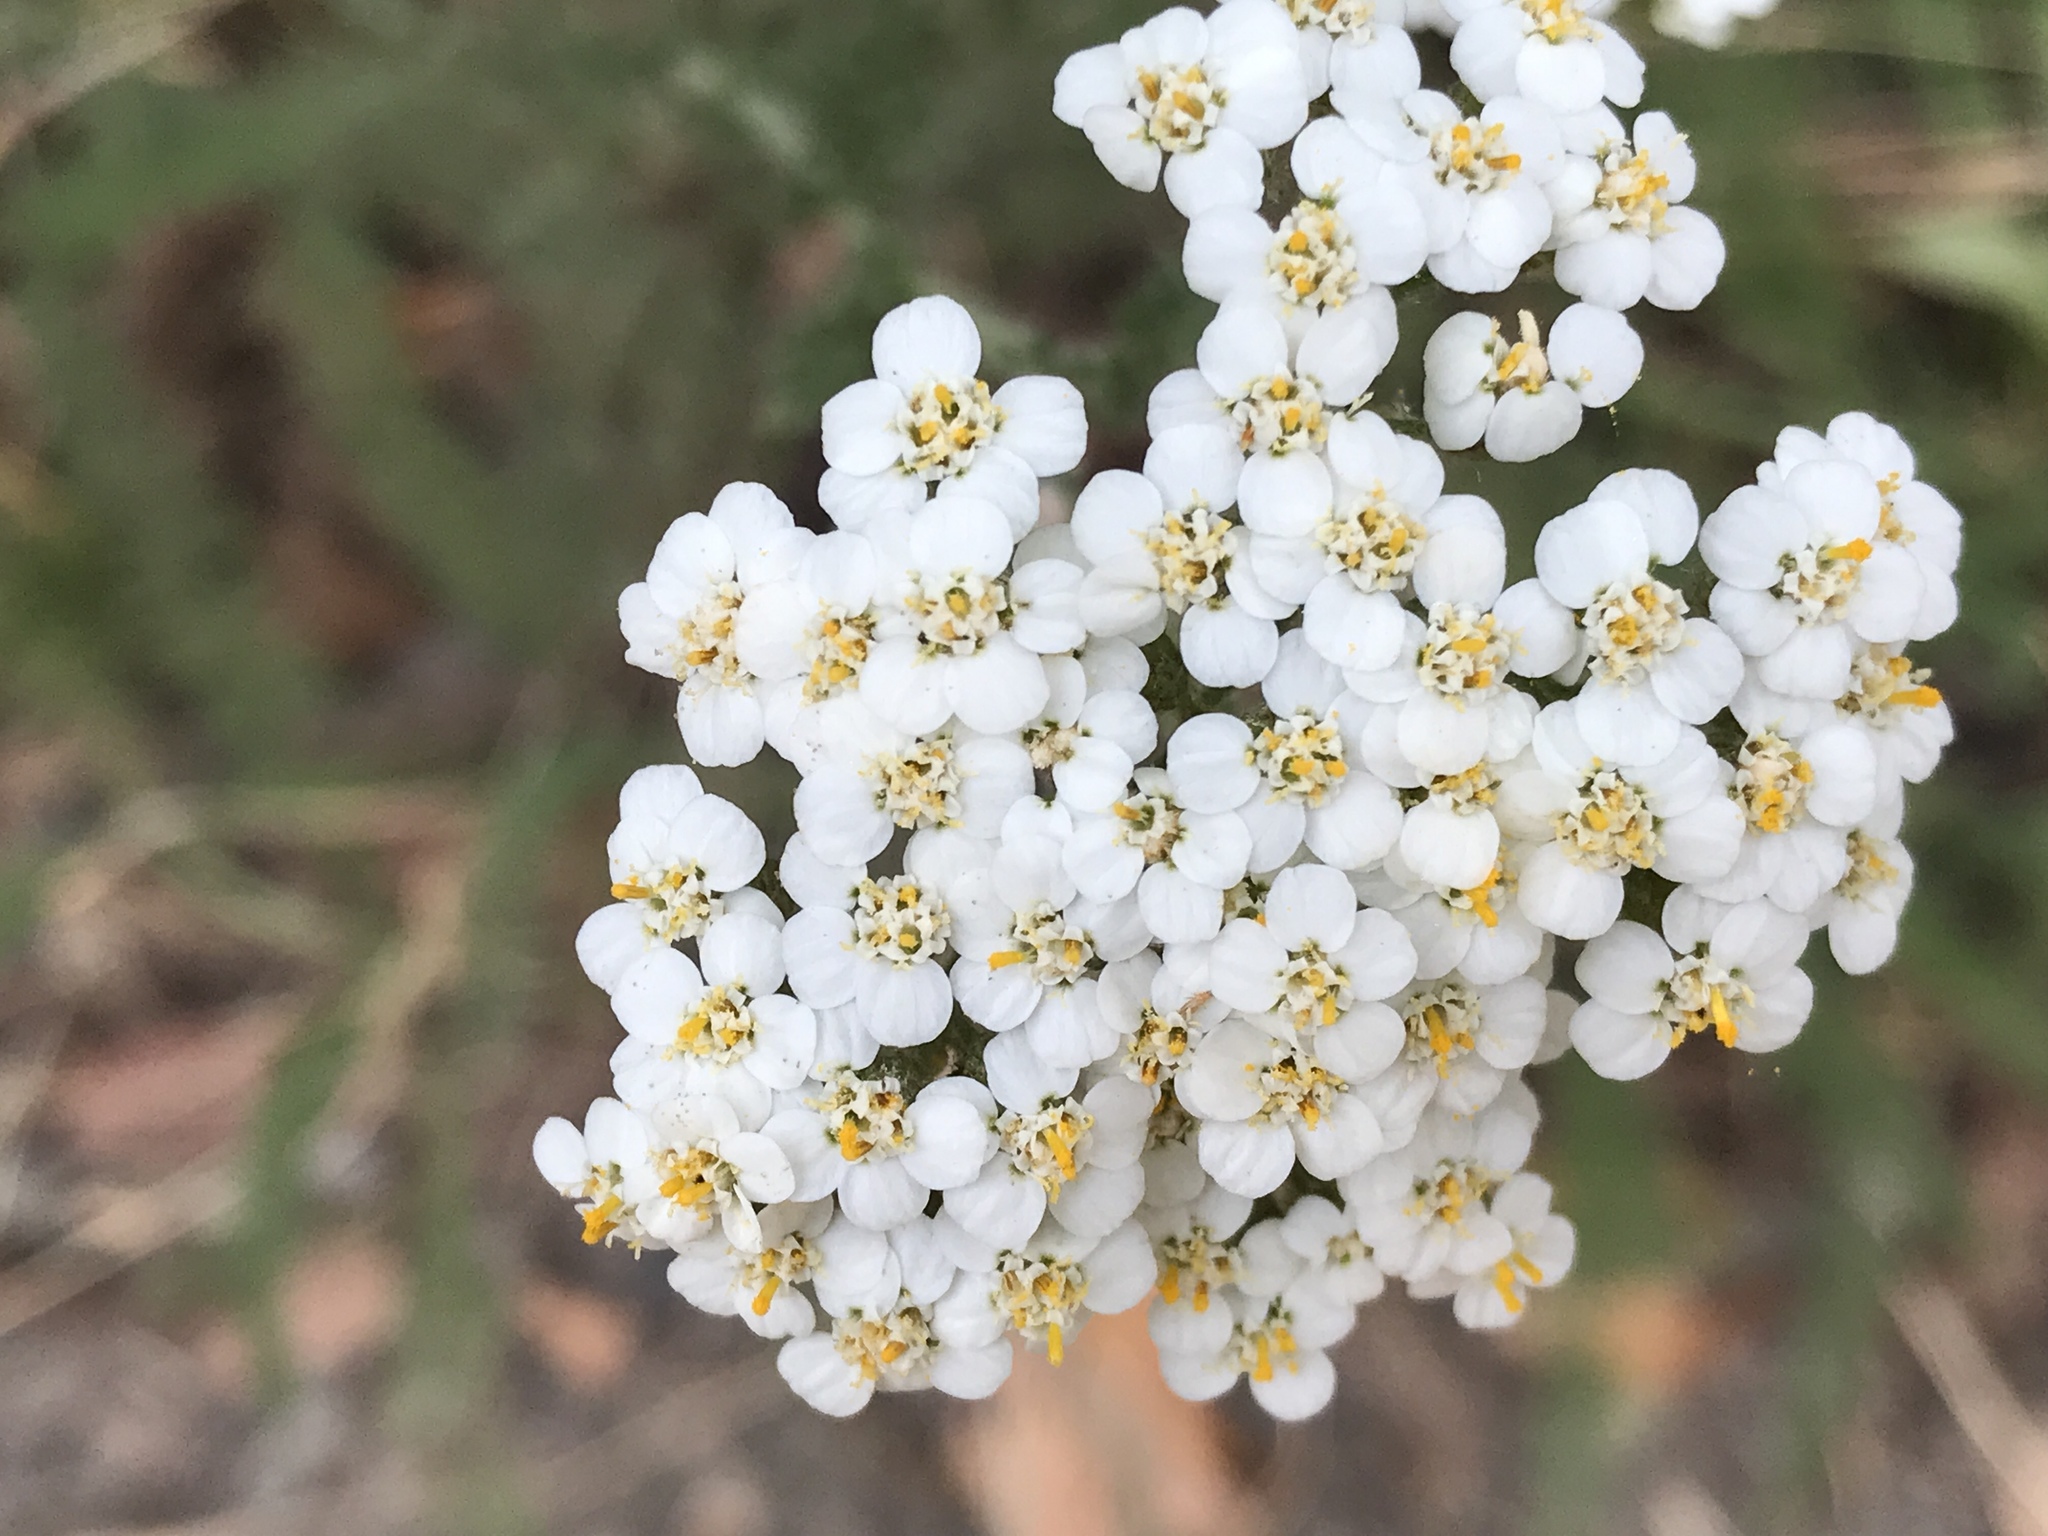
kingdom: Plantae
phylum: Tracheophyta
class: Magnoliopsida
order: Asterales
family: Asteraceae
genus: Achillea
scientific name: Achillea millefolium
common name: Yarrow
